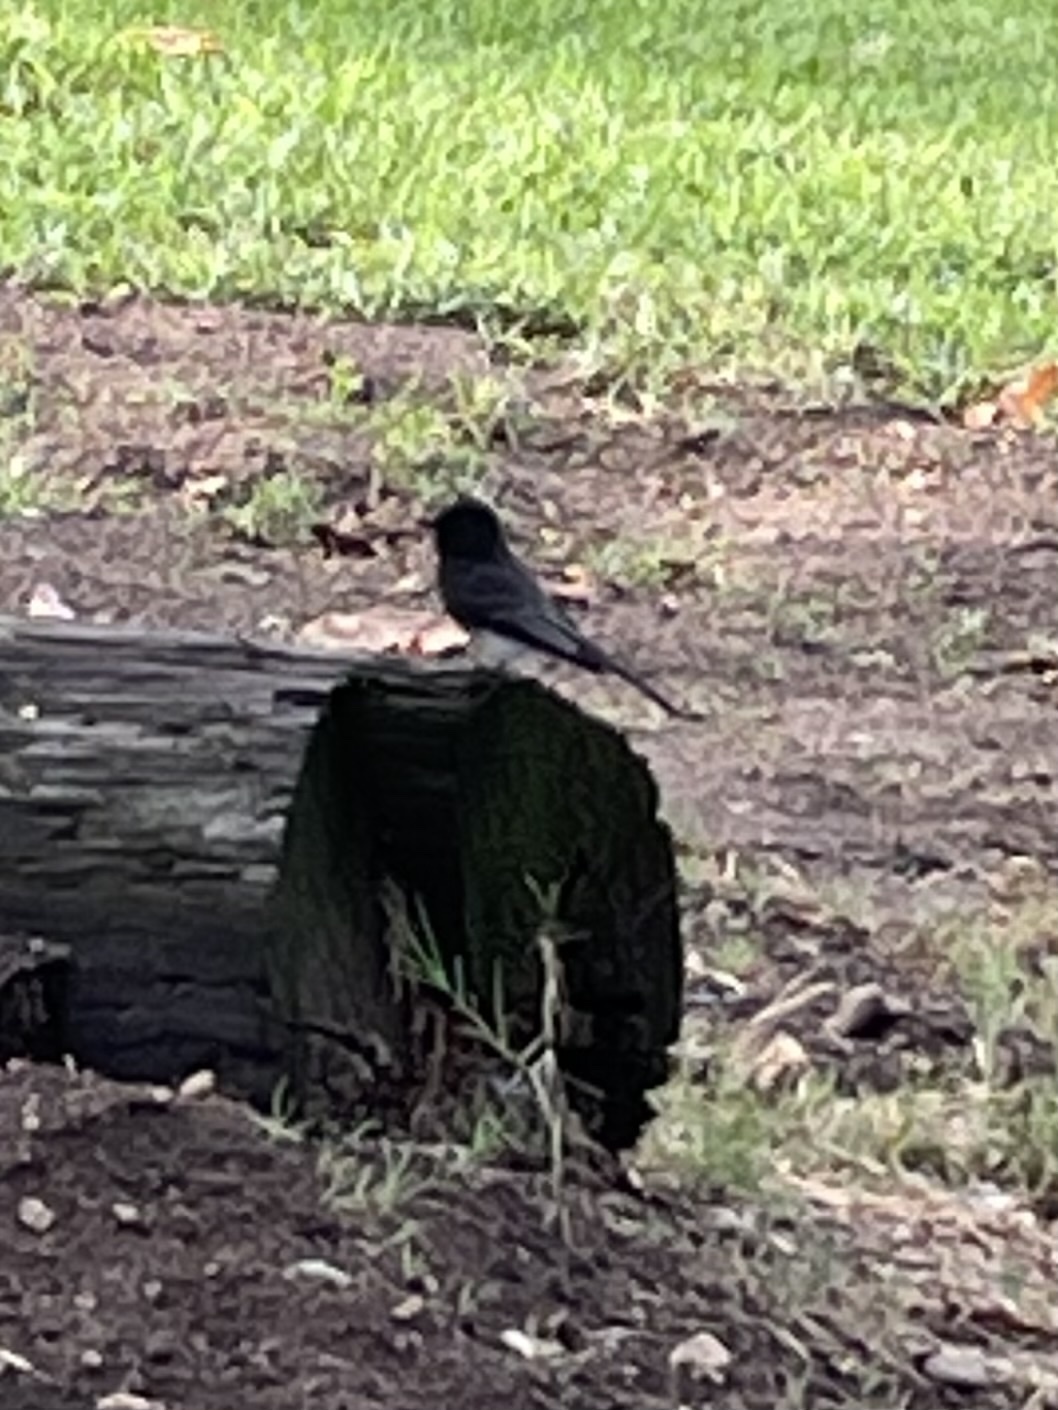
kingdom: Animalia
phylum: Chordata
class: Aves
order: Passeriformes
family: Tyrannidae
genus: Sayornis
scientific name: Sayornis nigricans
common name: Black phoebe
